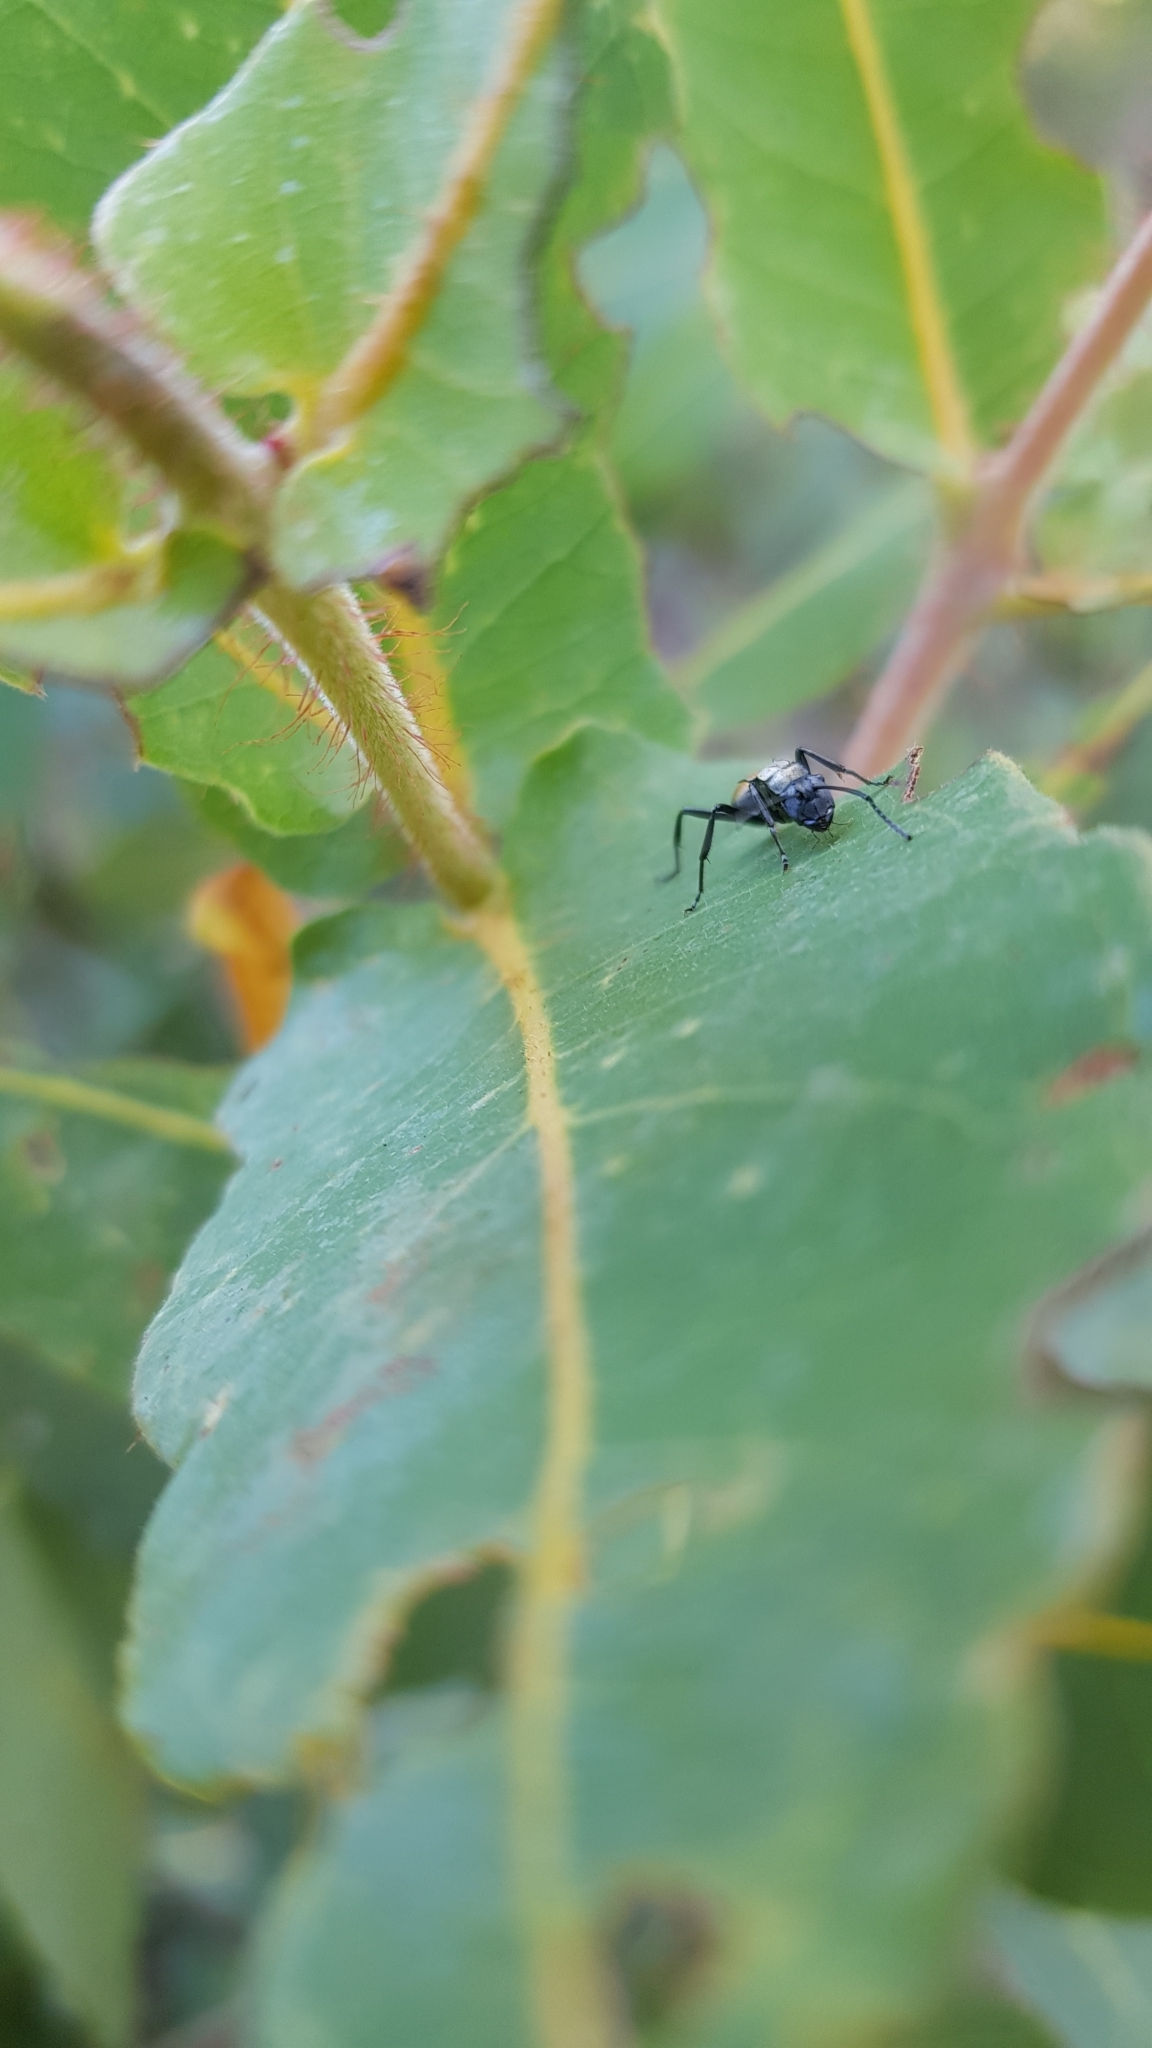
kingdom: Animalia
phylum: Arthropoda
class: Insecta
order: Hymenoptera
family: Formicidae
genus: Polyrhachis
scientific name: Polyrhachis ammon
